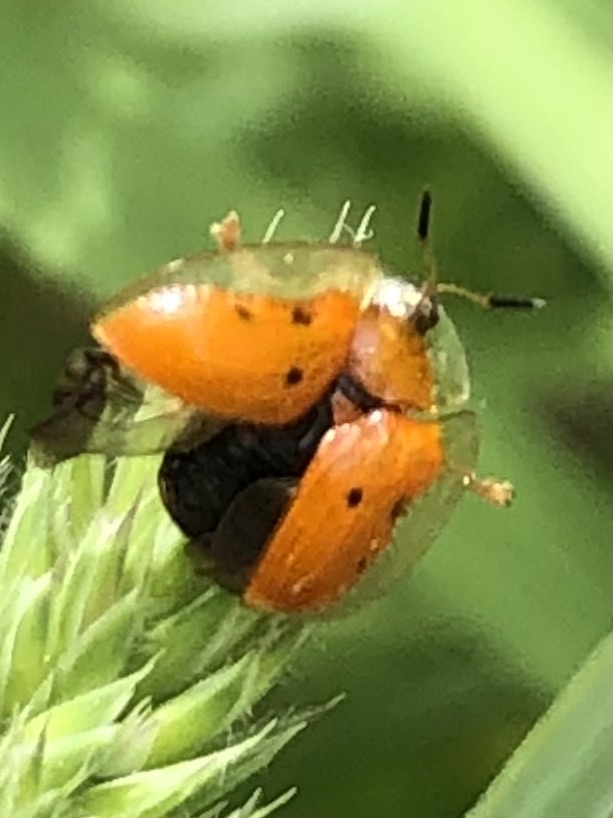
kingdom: Animalia
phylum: Arthropoda
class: Insecta
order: Coleoptera
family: Chrysomelidae
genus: Charidotella
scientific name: Charidotella sexpunctata
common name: Golden tortoise beetle
